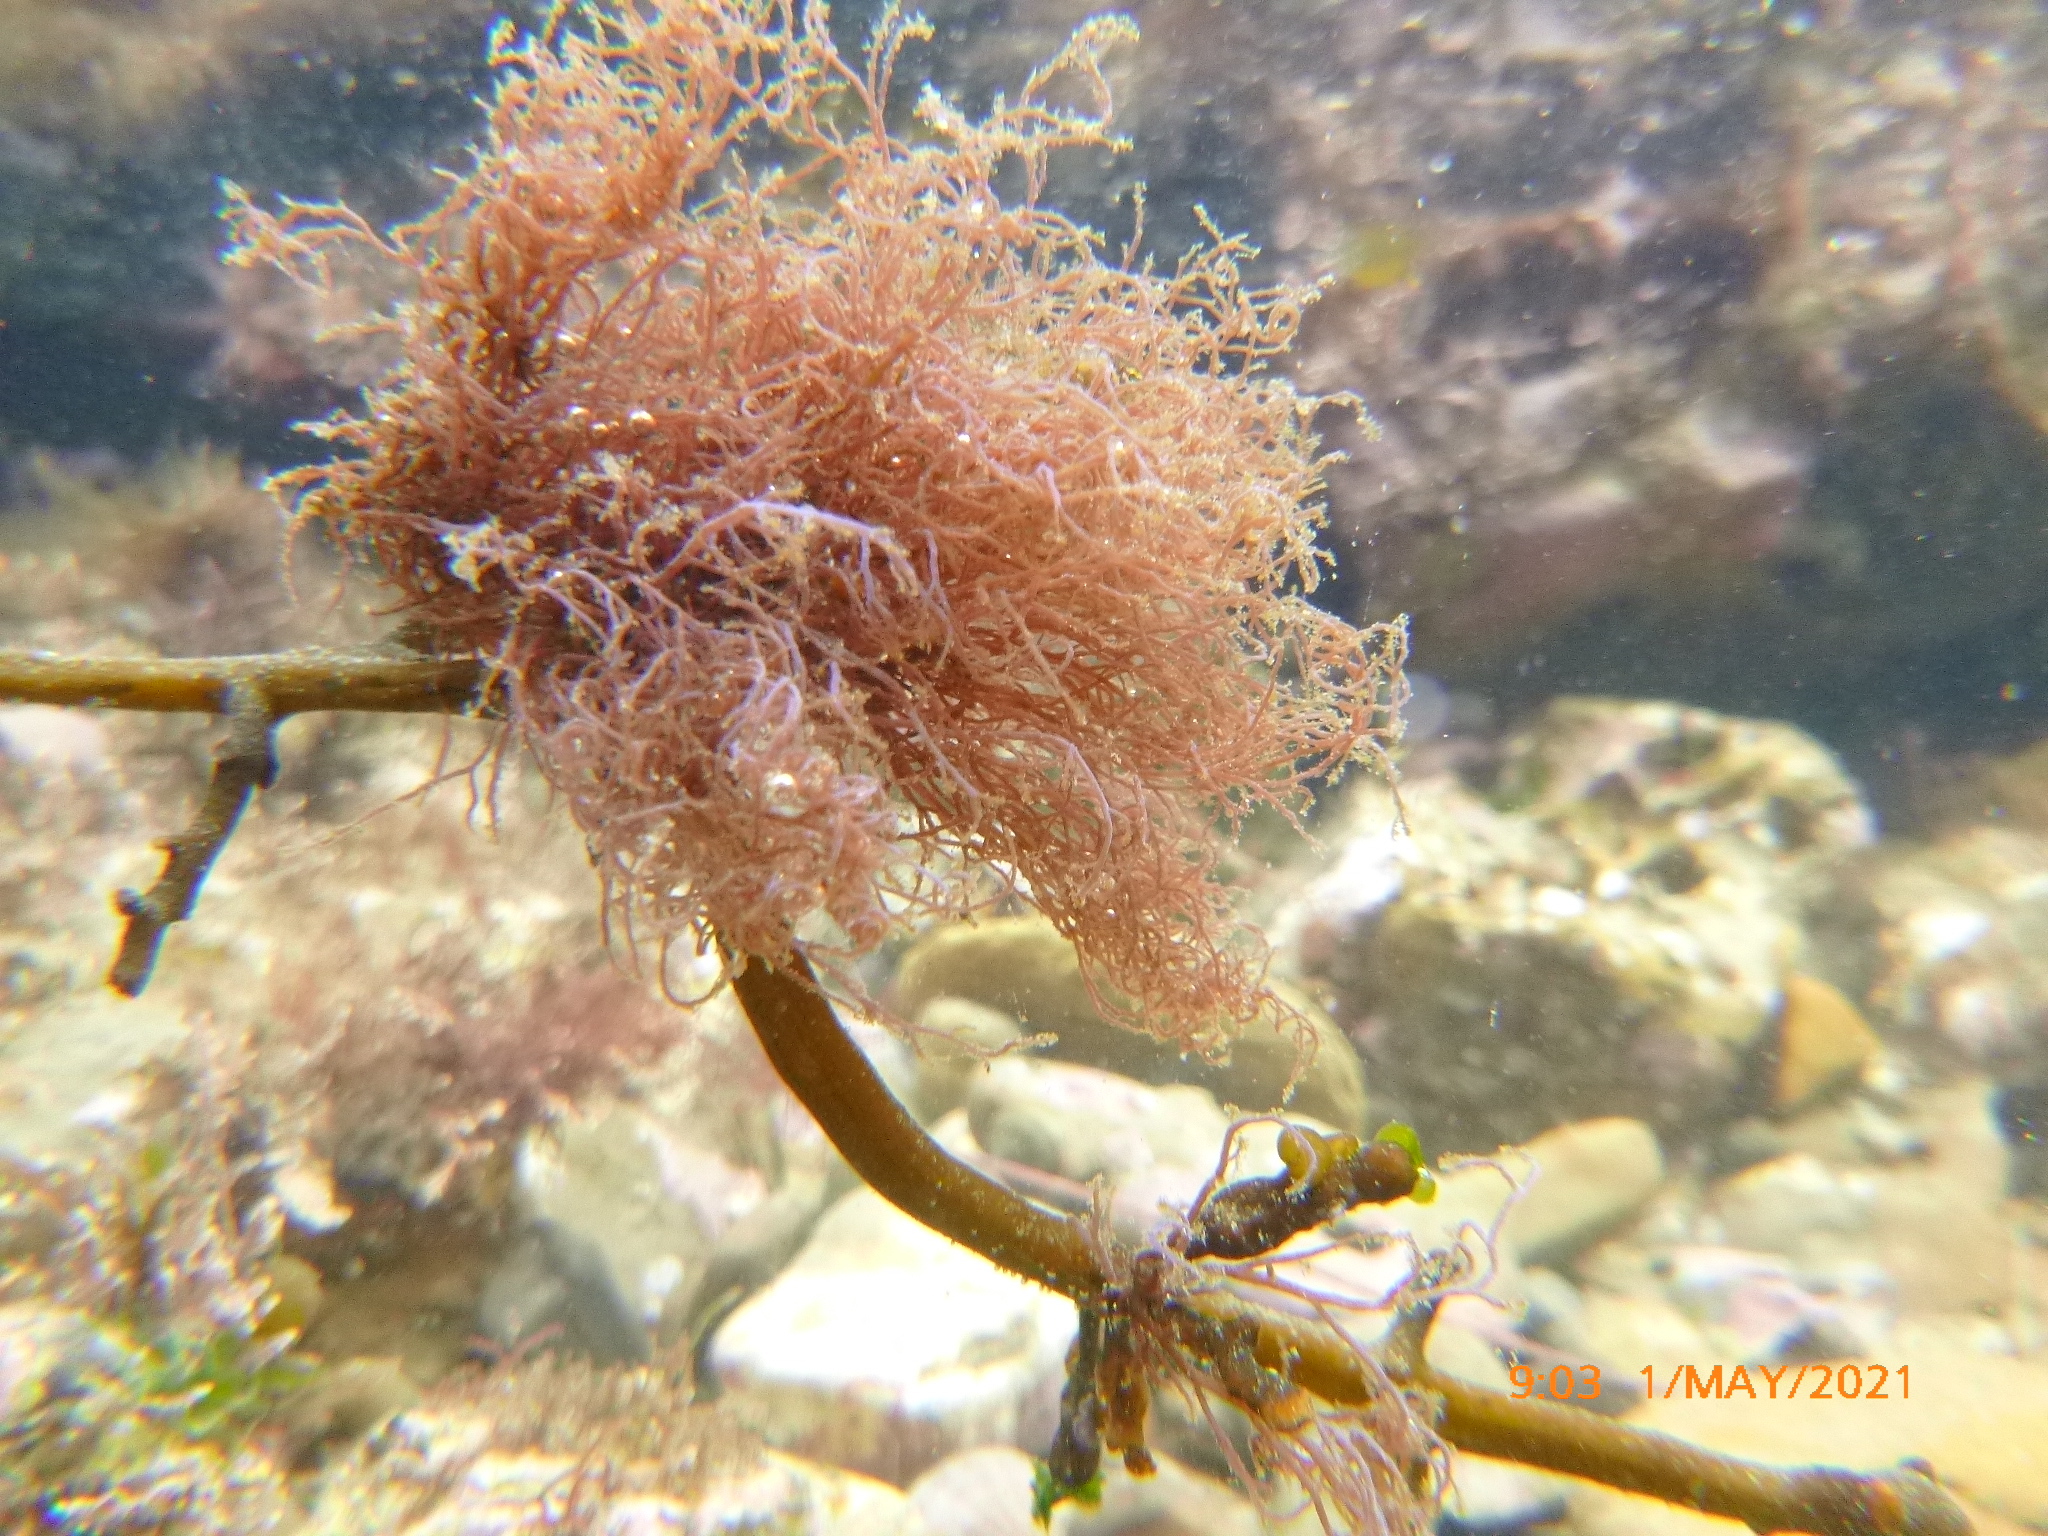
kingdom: Plantae
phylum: Rhodophyta
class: Florideophyceae
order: Ceramiales
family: Rhodomelaceae
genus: Chondria
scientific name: Chondria acrorhizophora
